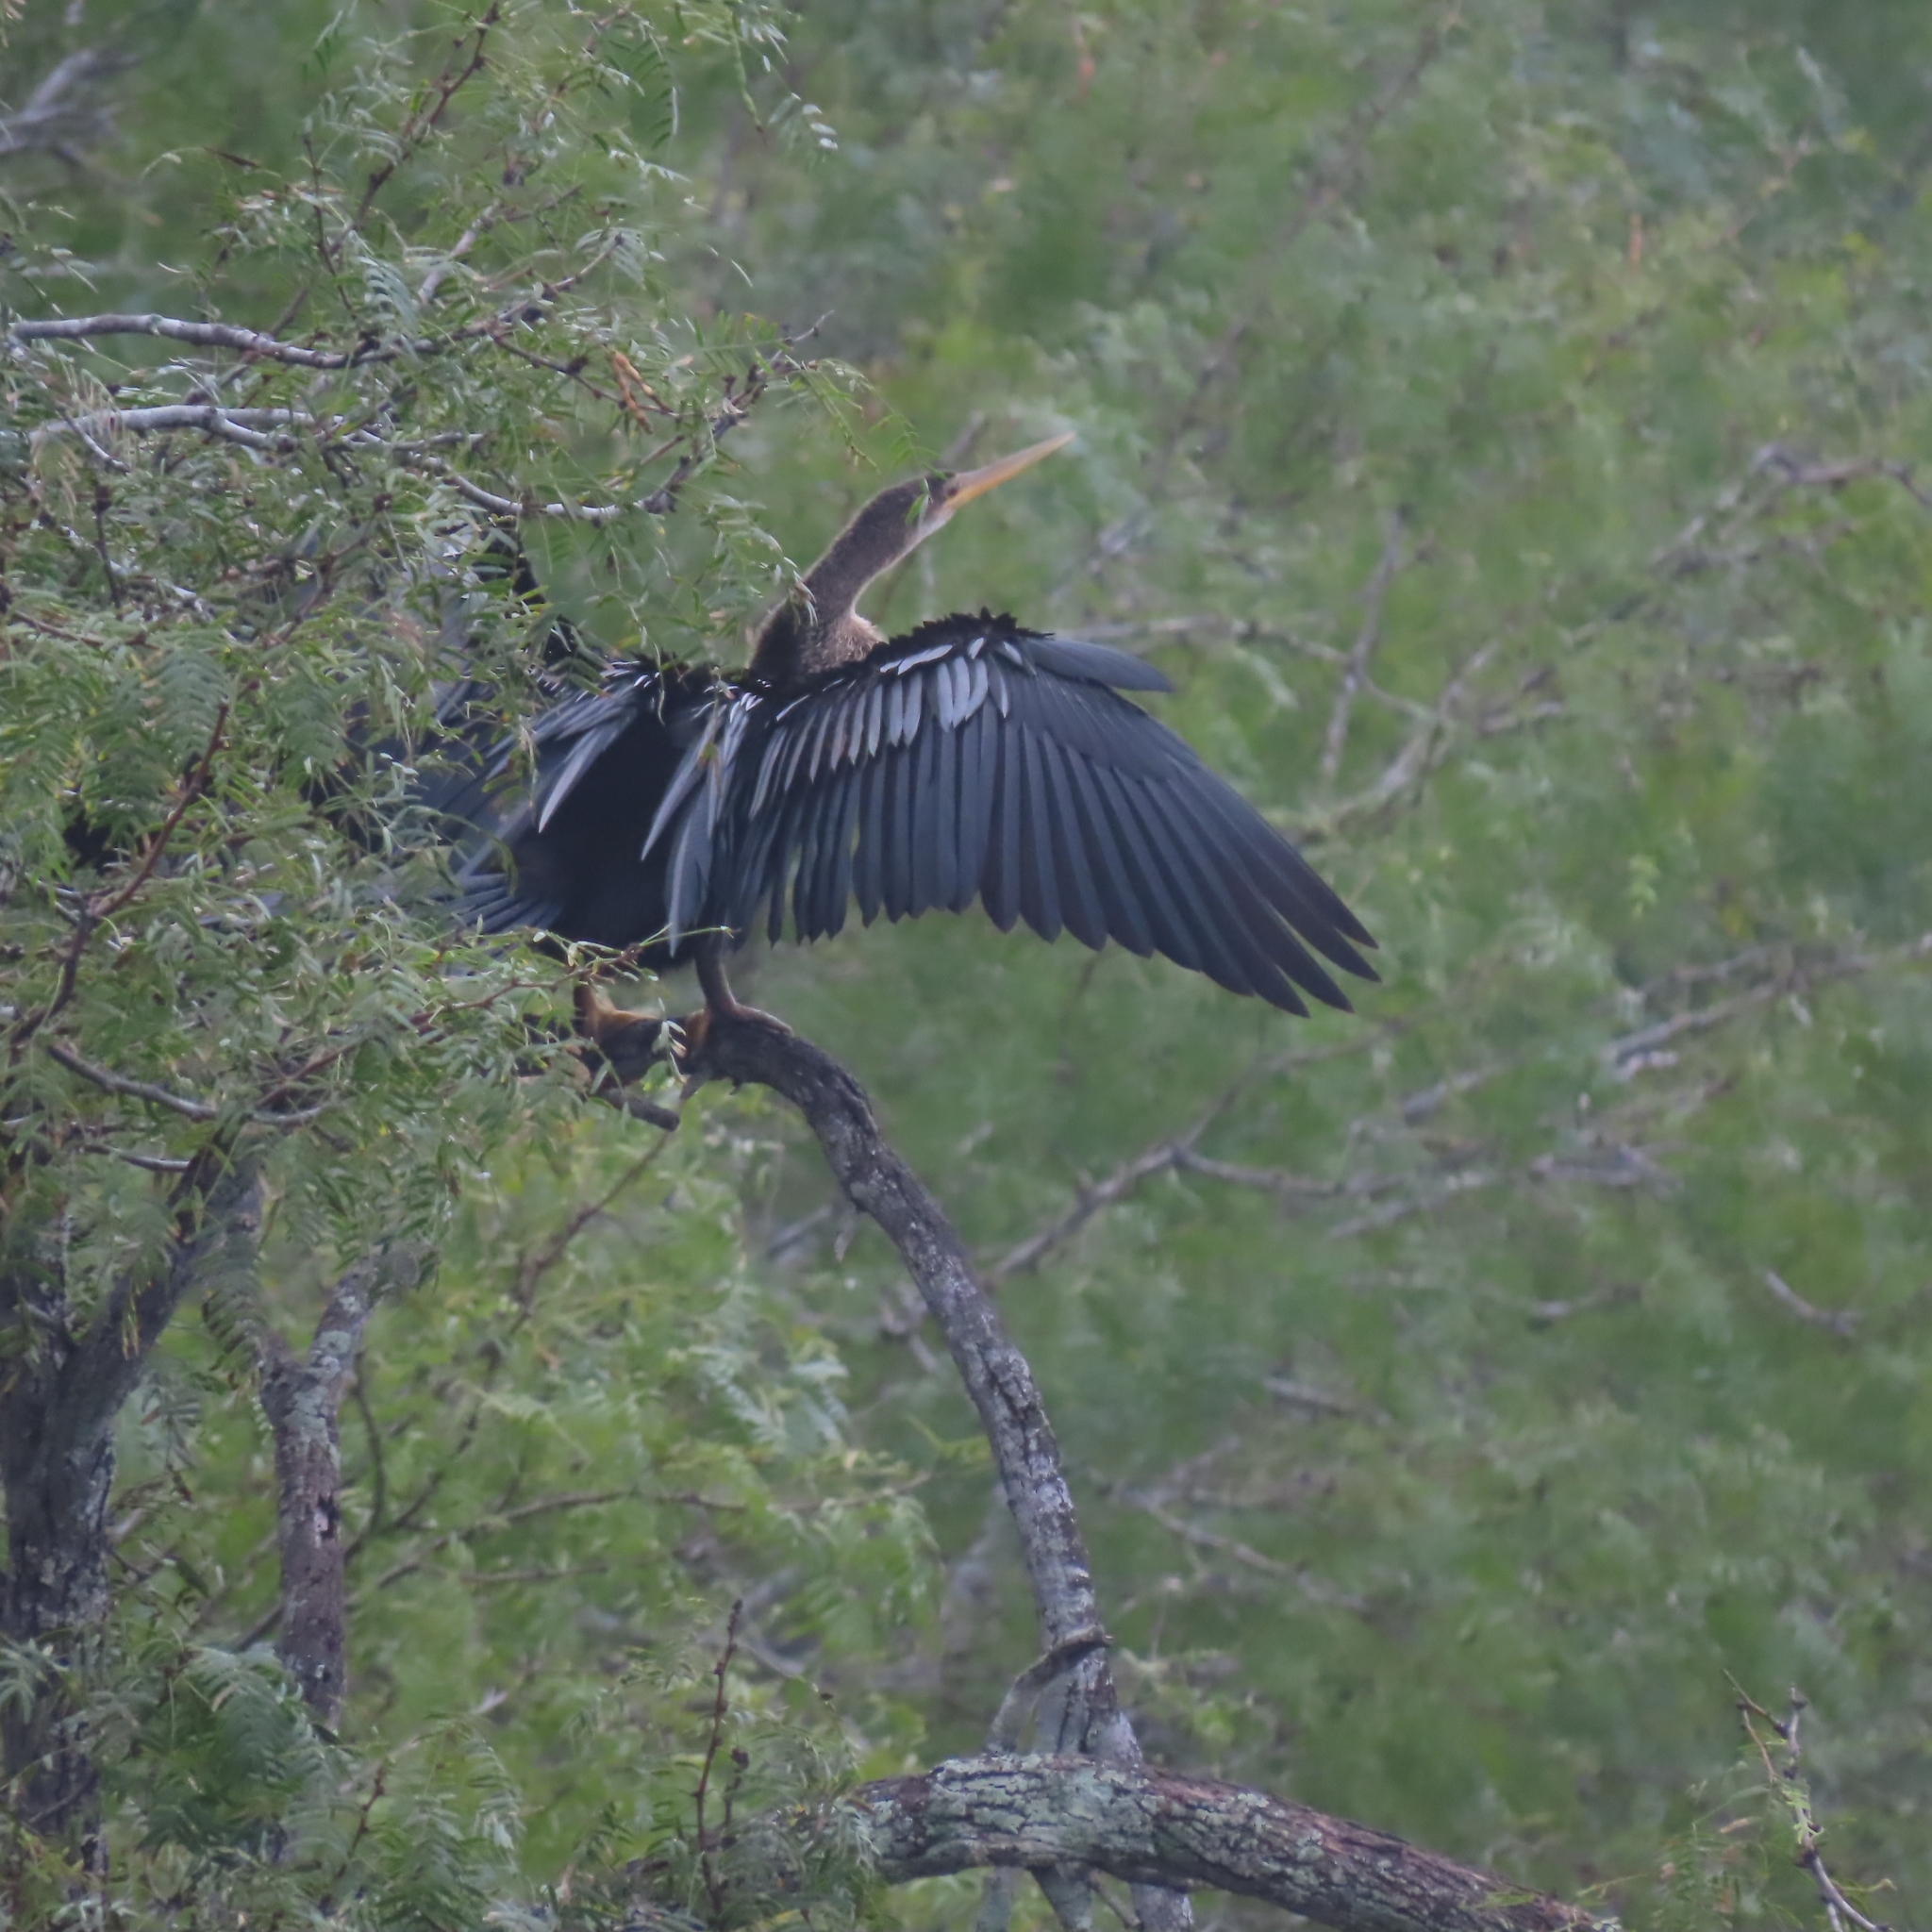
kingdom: Animalia
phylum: Chordata
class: Aves
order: Suliformes
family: Anhingidae
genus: Anhinga
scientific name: Anhinga anhinga
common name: Anhinga
